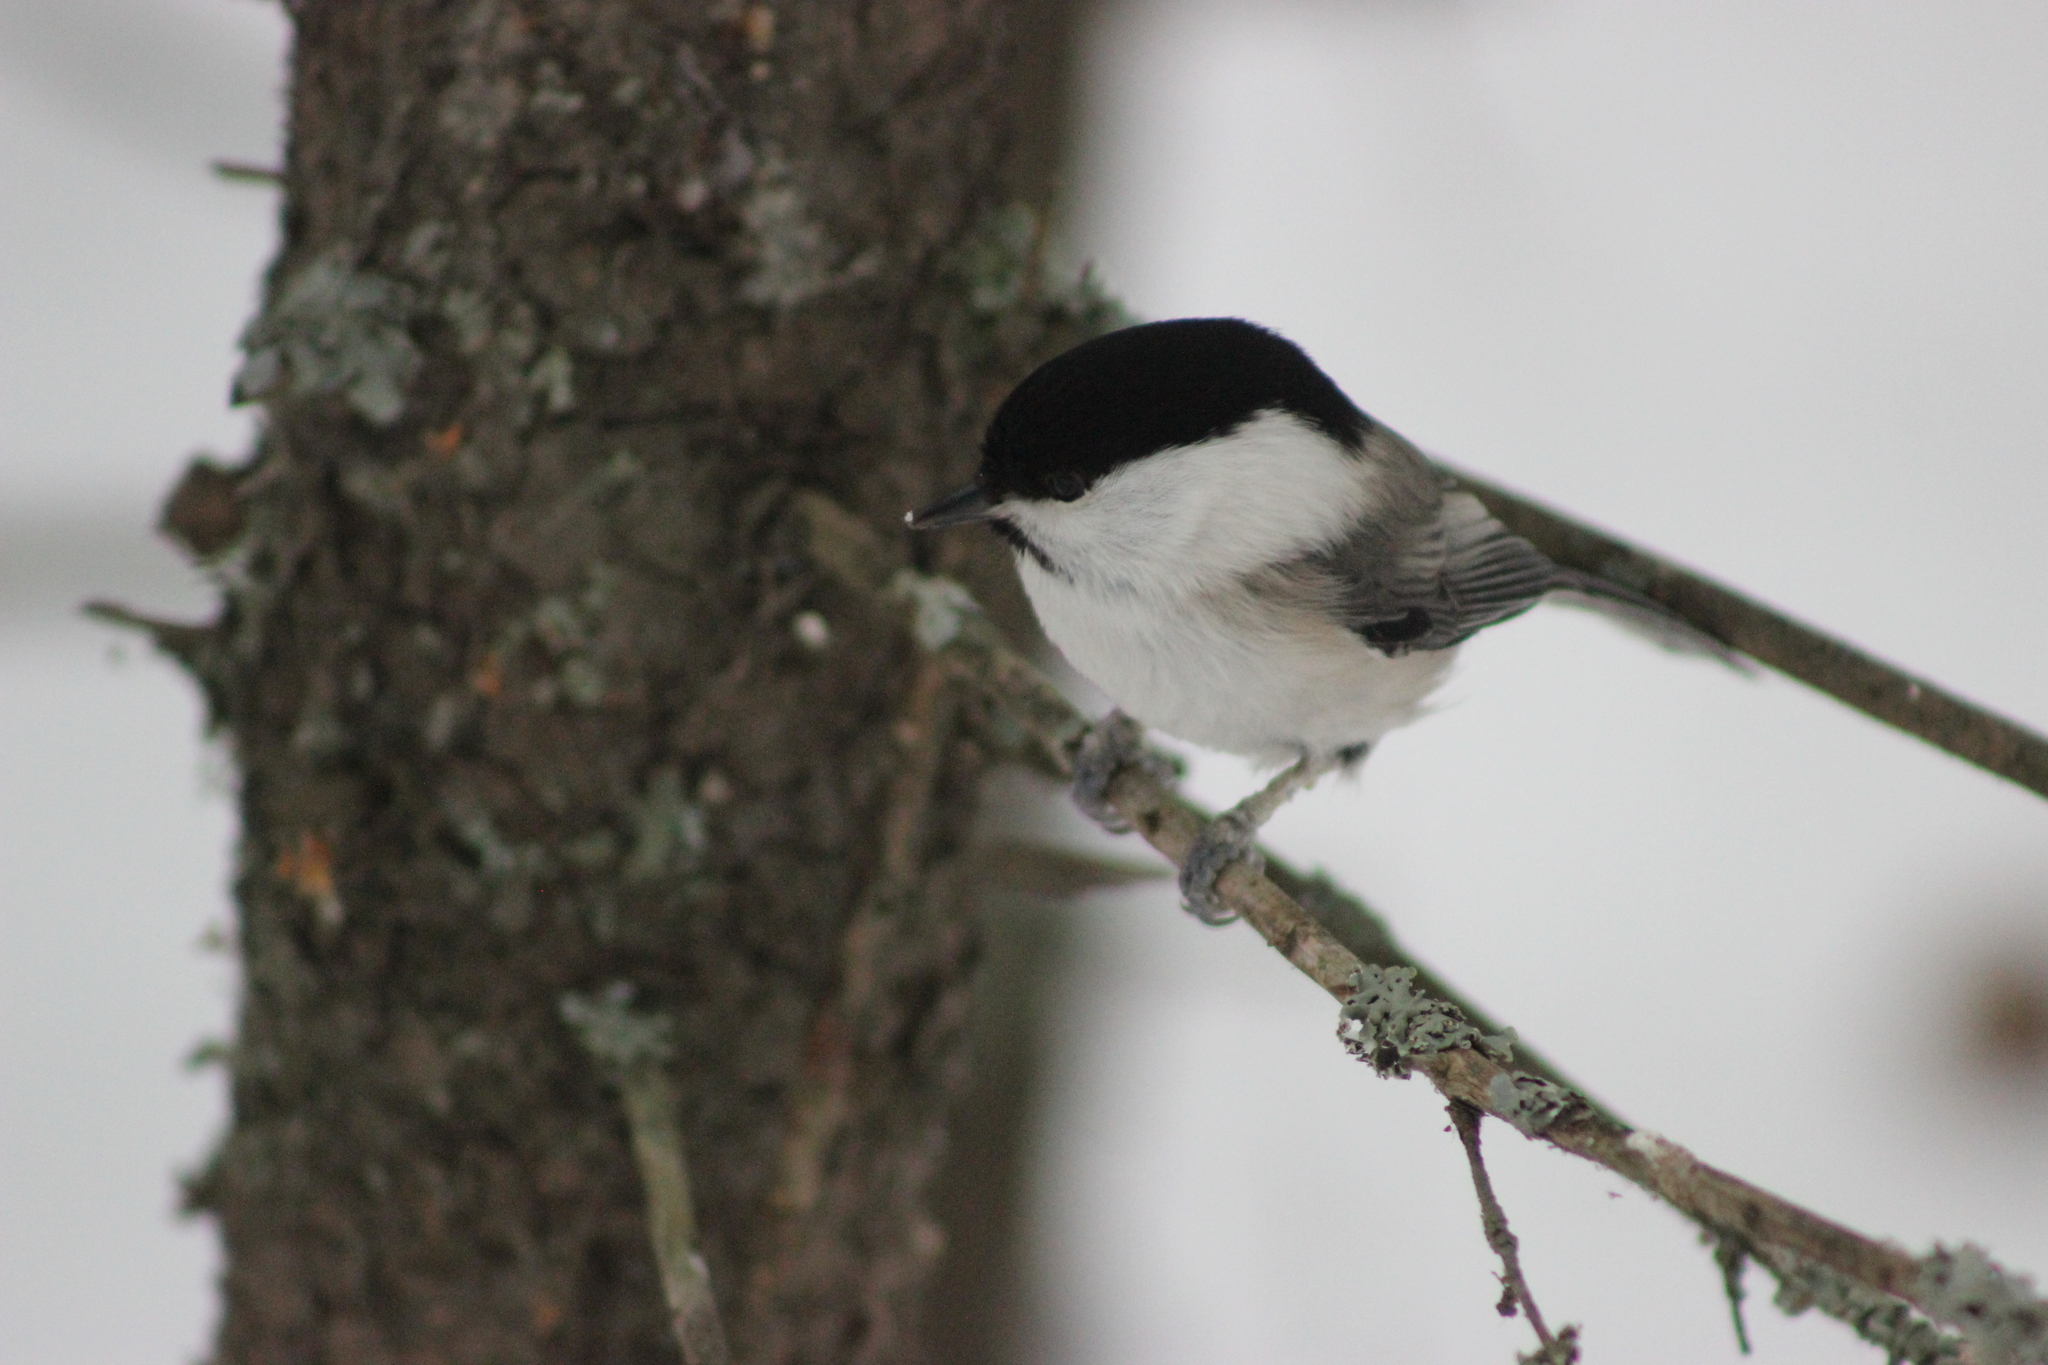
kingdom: Animalia
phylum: Chordata
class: Aves
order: Passeriformes
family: Paridae
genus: Poecile
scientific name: Poecile montanus
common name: Willow tit
